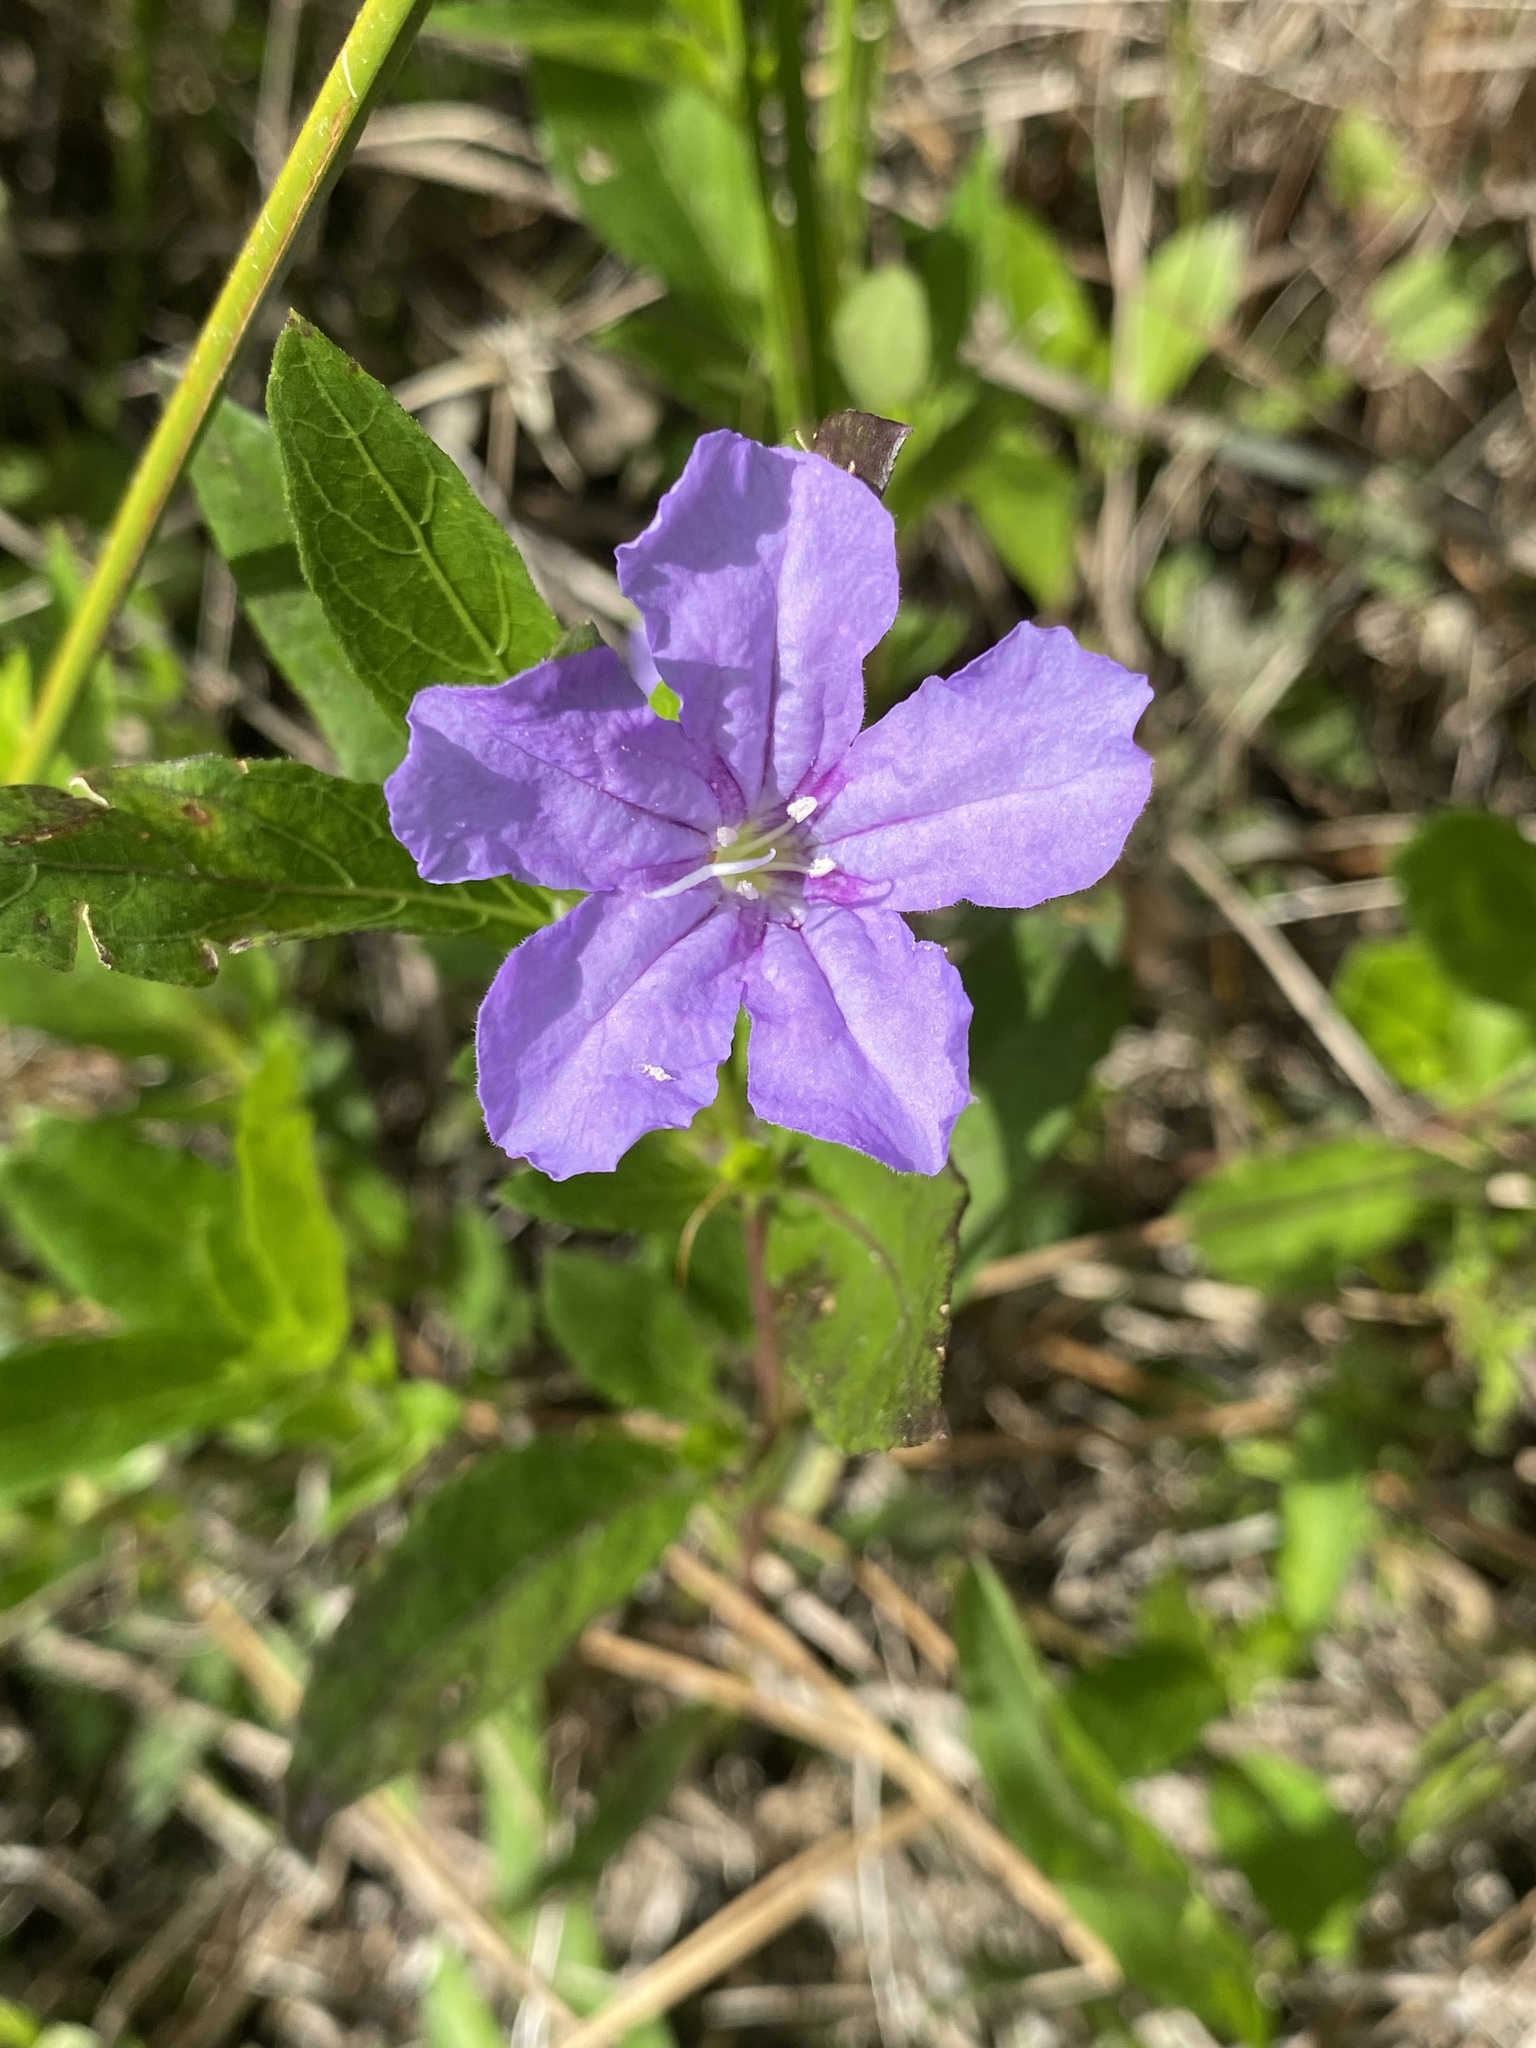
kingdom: Plantae
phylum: Tracheophyta
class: Magnoliopsida
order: Lamiales
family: Acanthaceae
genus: Ruellia
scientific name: Ruellia caroliniensis
